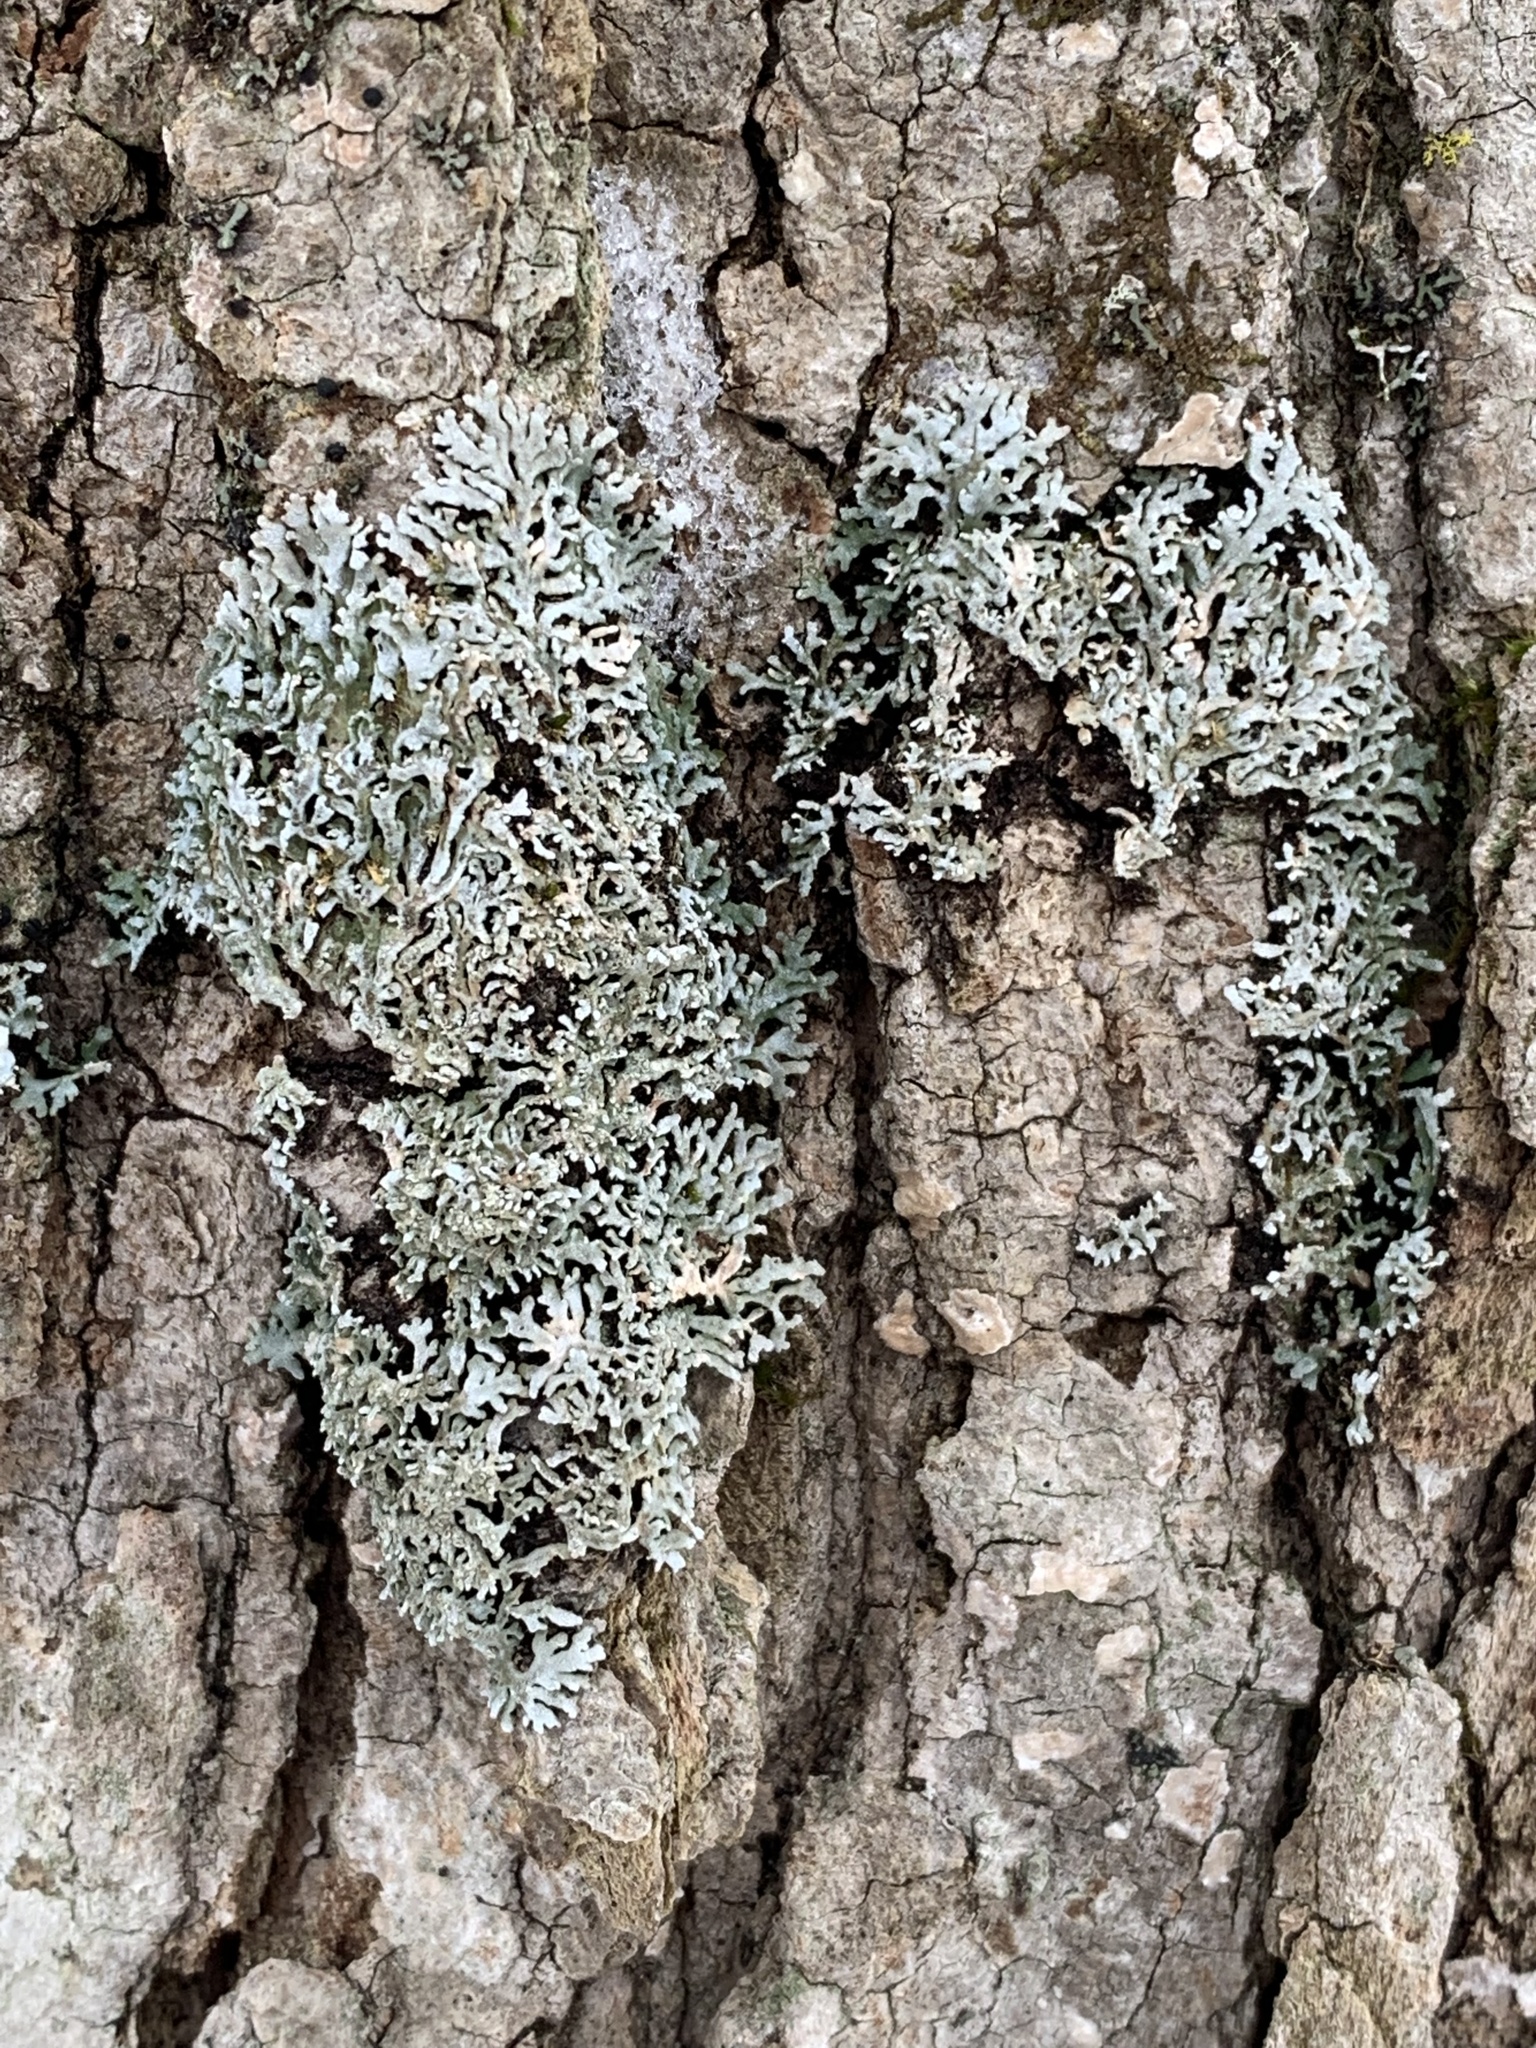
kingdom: Fungi
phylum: Ascomycota
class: Lecanoromycetes
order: Caliciales
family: Physciaceae
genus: Physconia
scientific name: Physconia subpallida
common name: Pale-belly frost lichen
